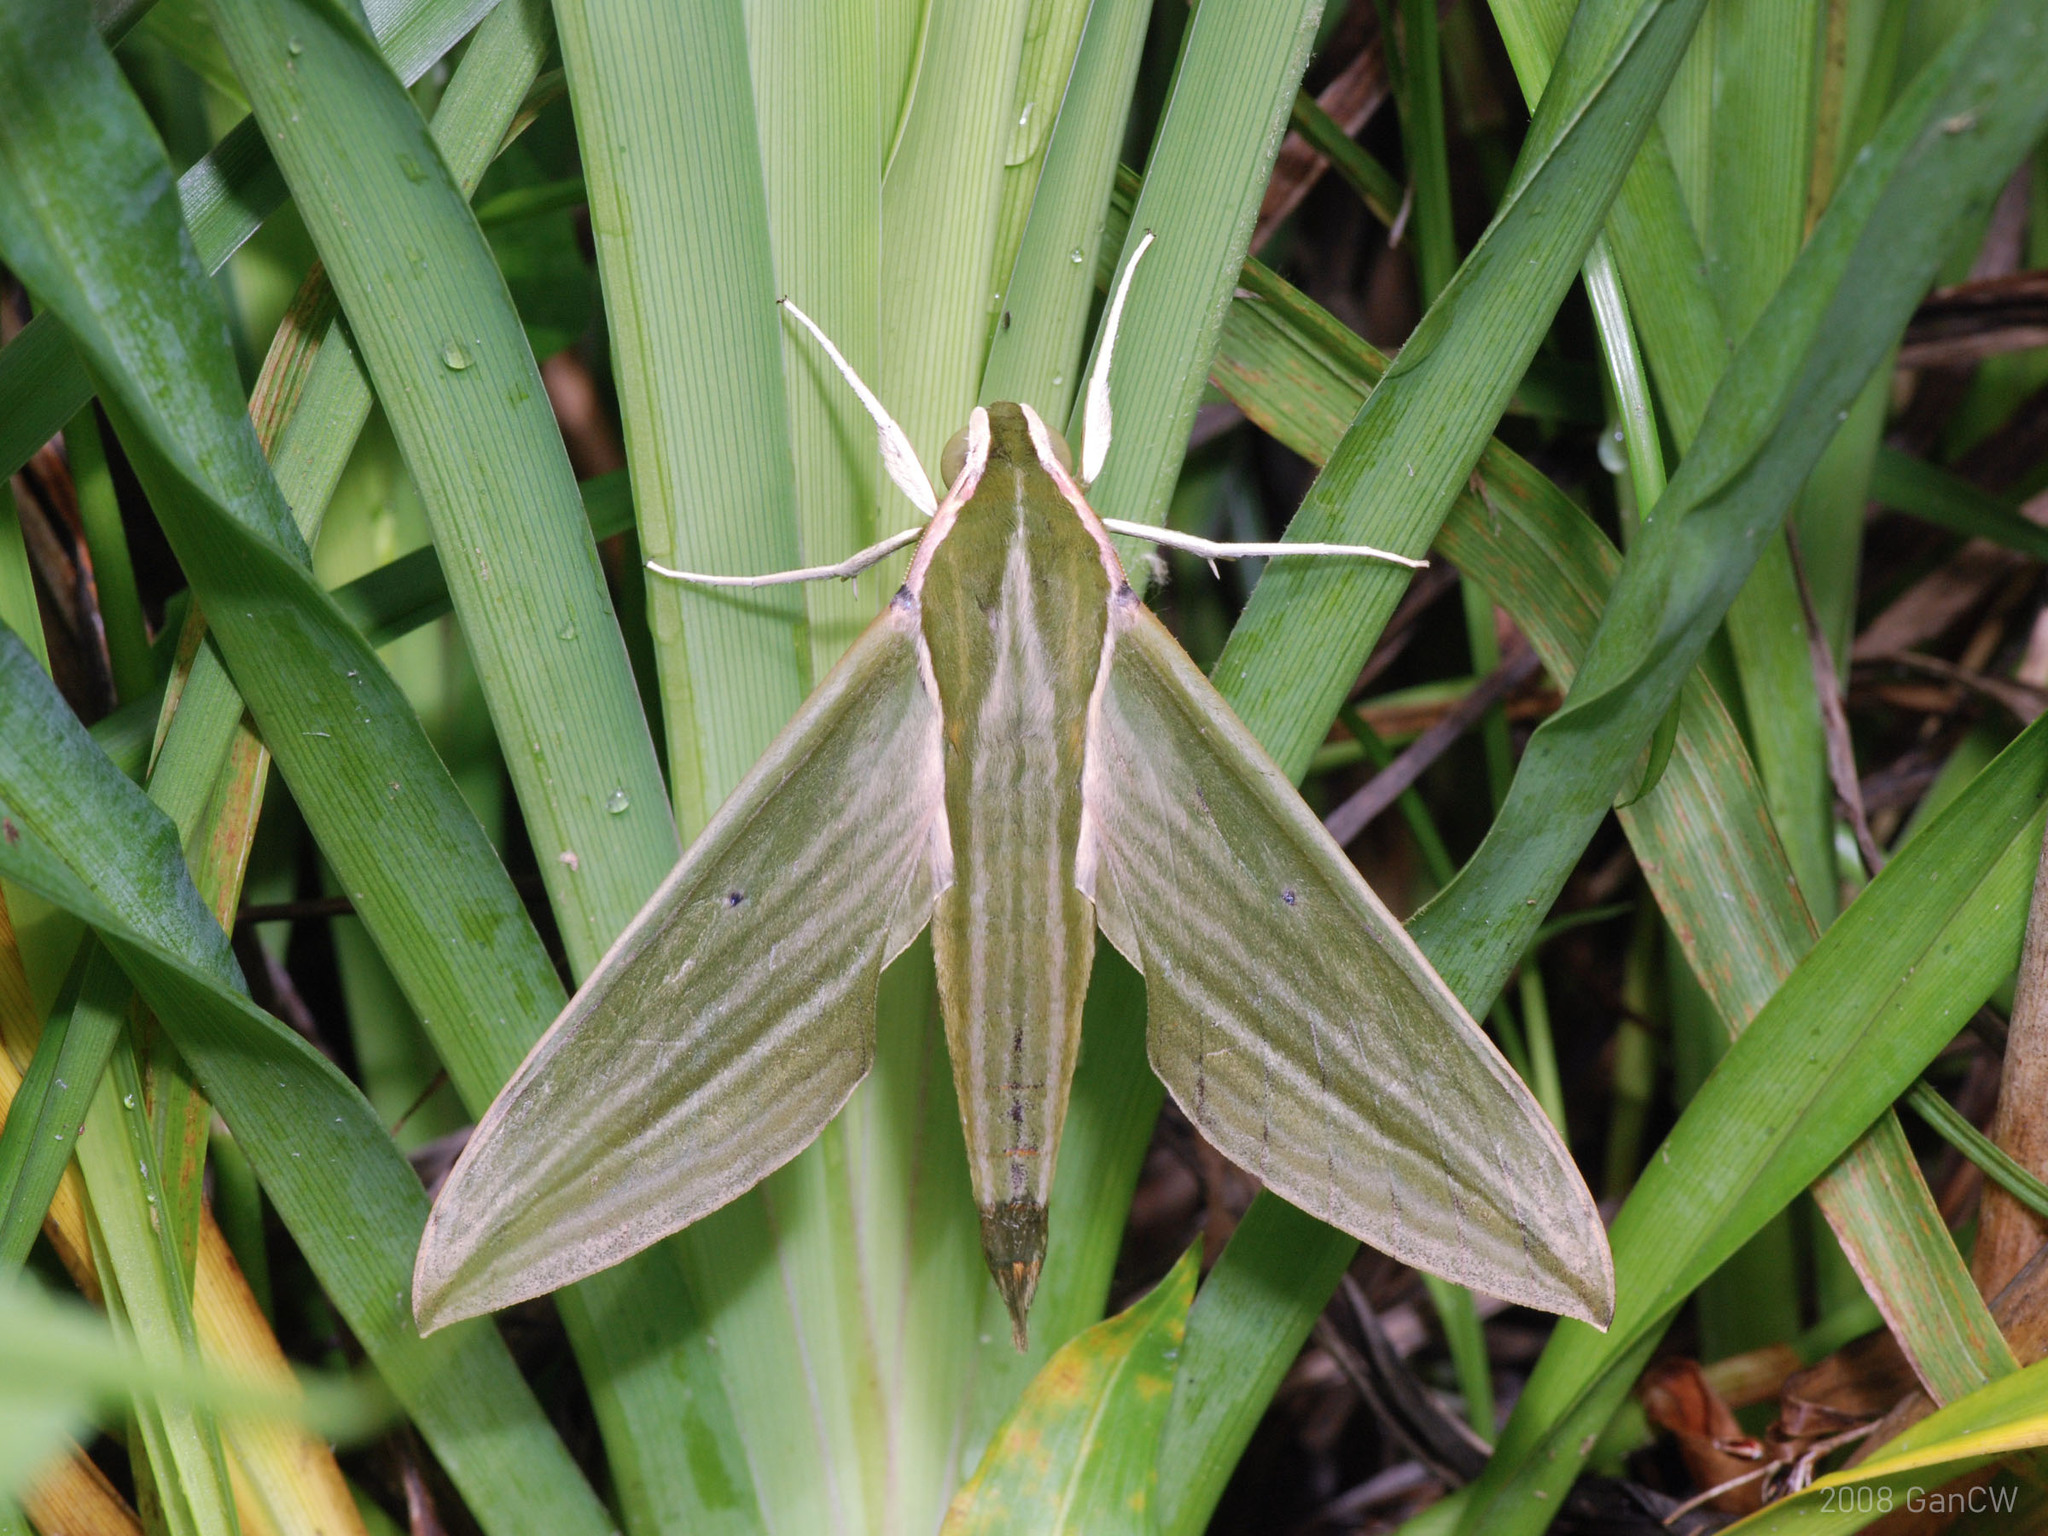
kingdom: Animalia
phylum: Arthropoda
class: Insecta
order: Lepidoptera
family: Sphingidae
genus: Cechetra
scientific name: Cechetra subangustata
